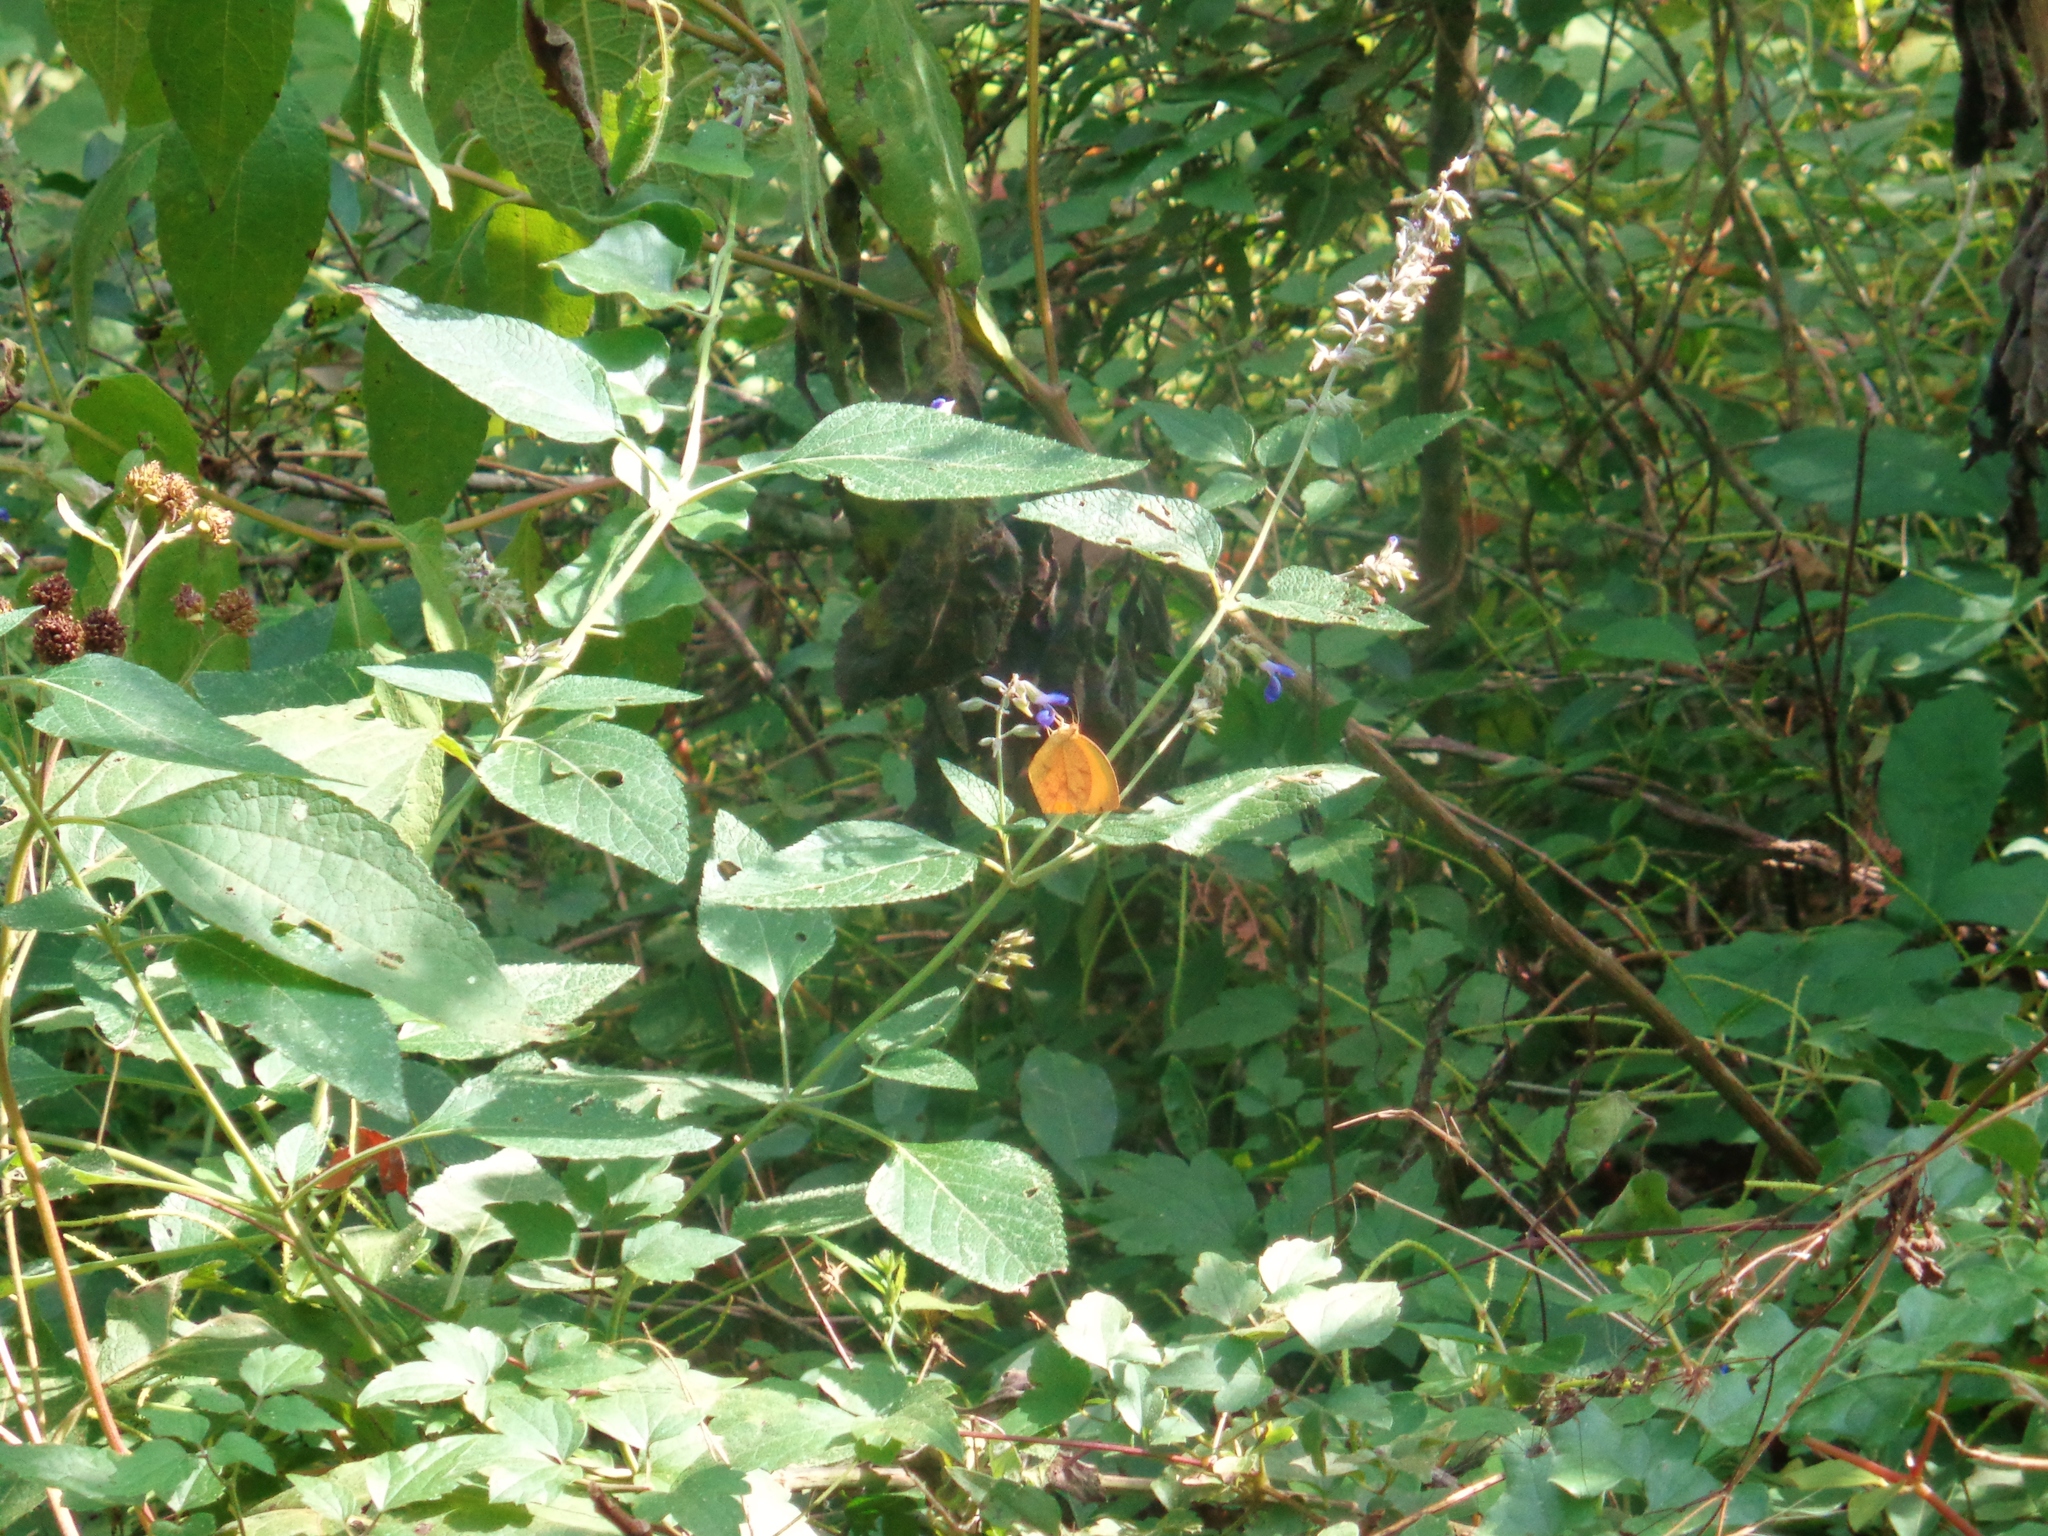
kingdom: Animalia
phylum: Arthropoda
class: Insecta
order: Lepidoptera
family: Pieridae
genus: Pyrisitia
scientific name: Pyrisitia proterpia
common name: Tailed orange
